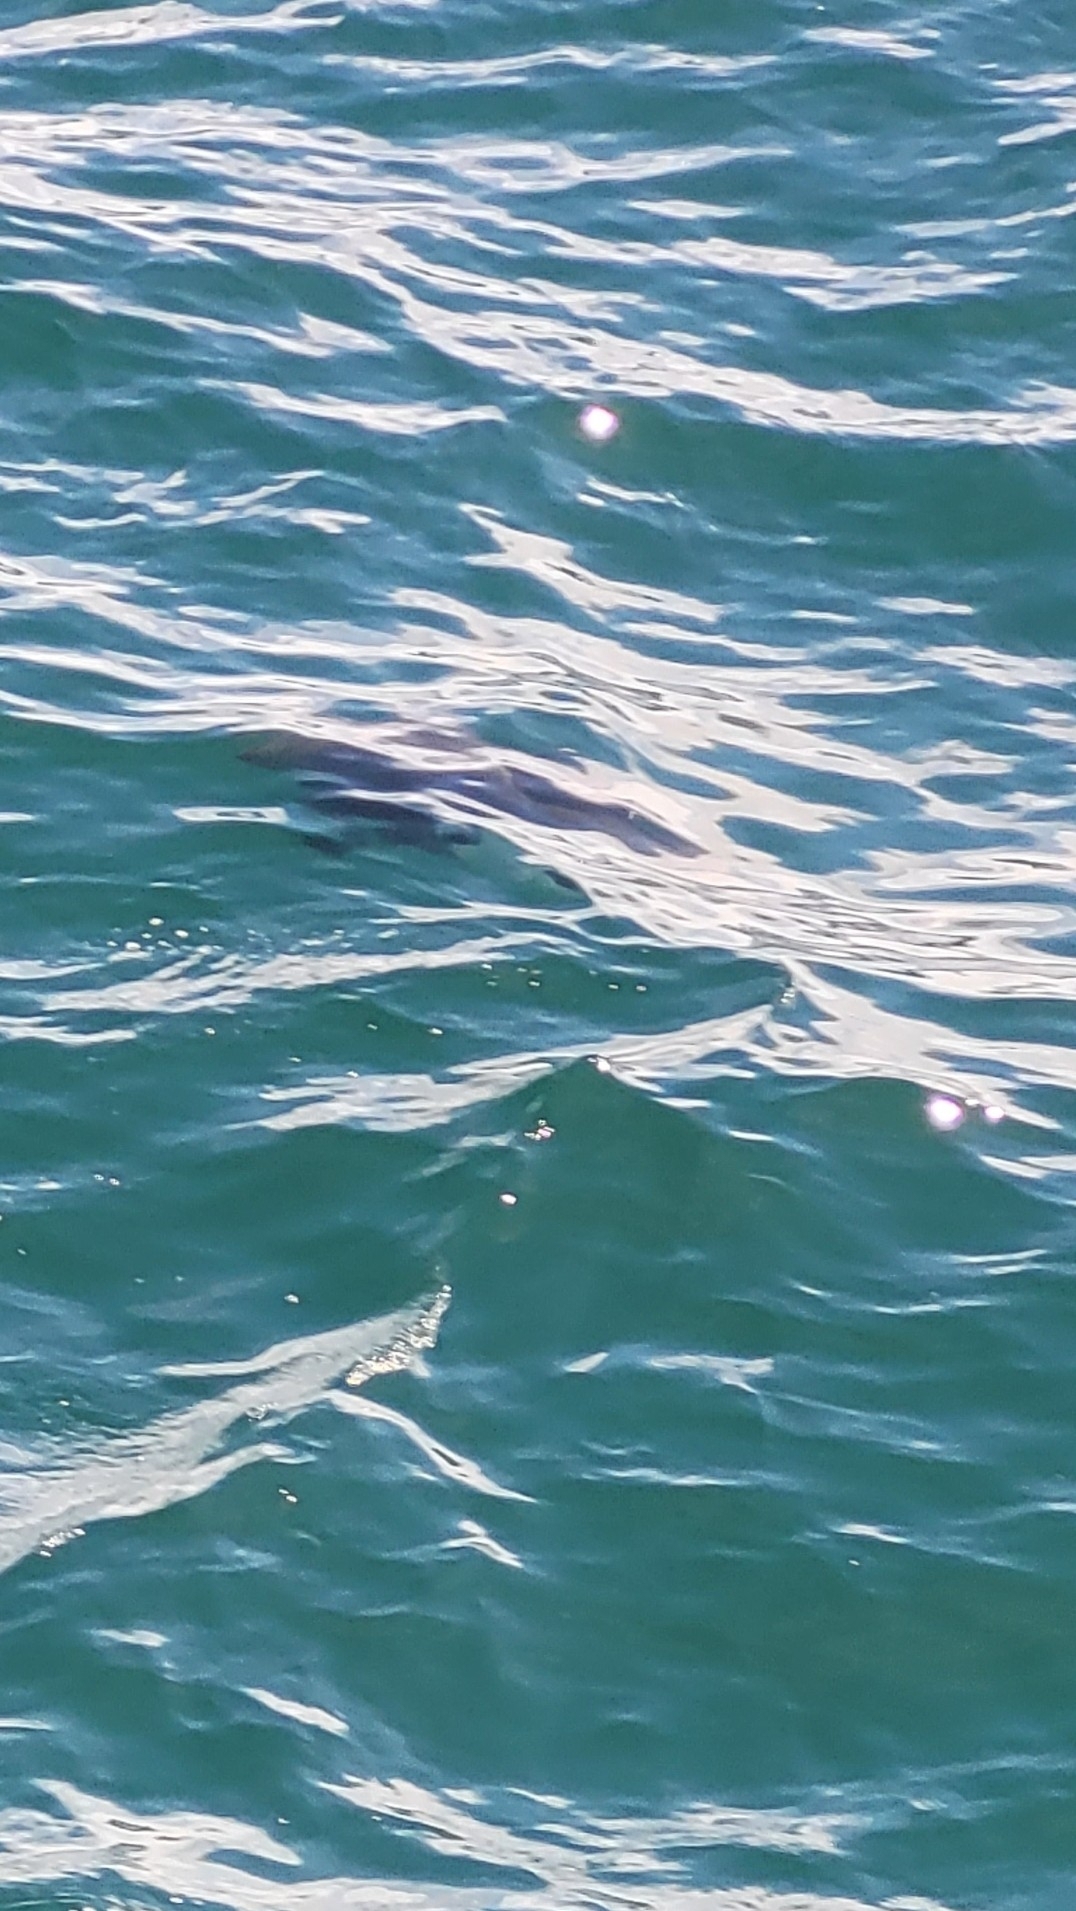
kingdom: Animalia
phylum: Chordata
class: Mammalia
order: Cetacea
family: Phocoenidae
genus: Phocoenoides
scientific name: Phocoenoides dalli
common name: Dall's porpoise
